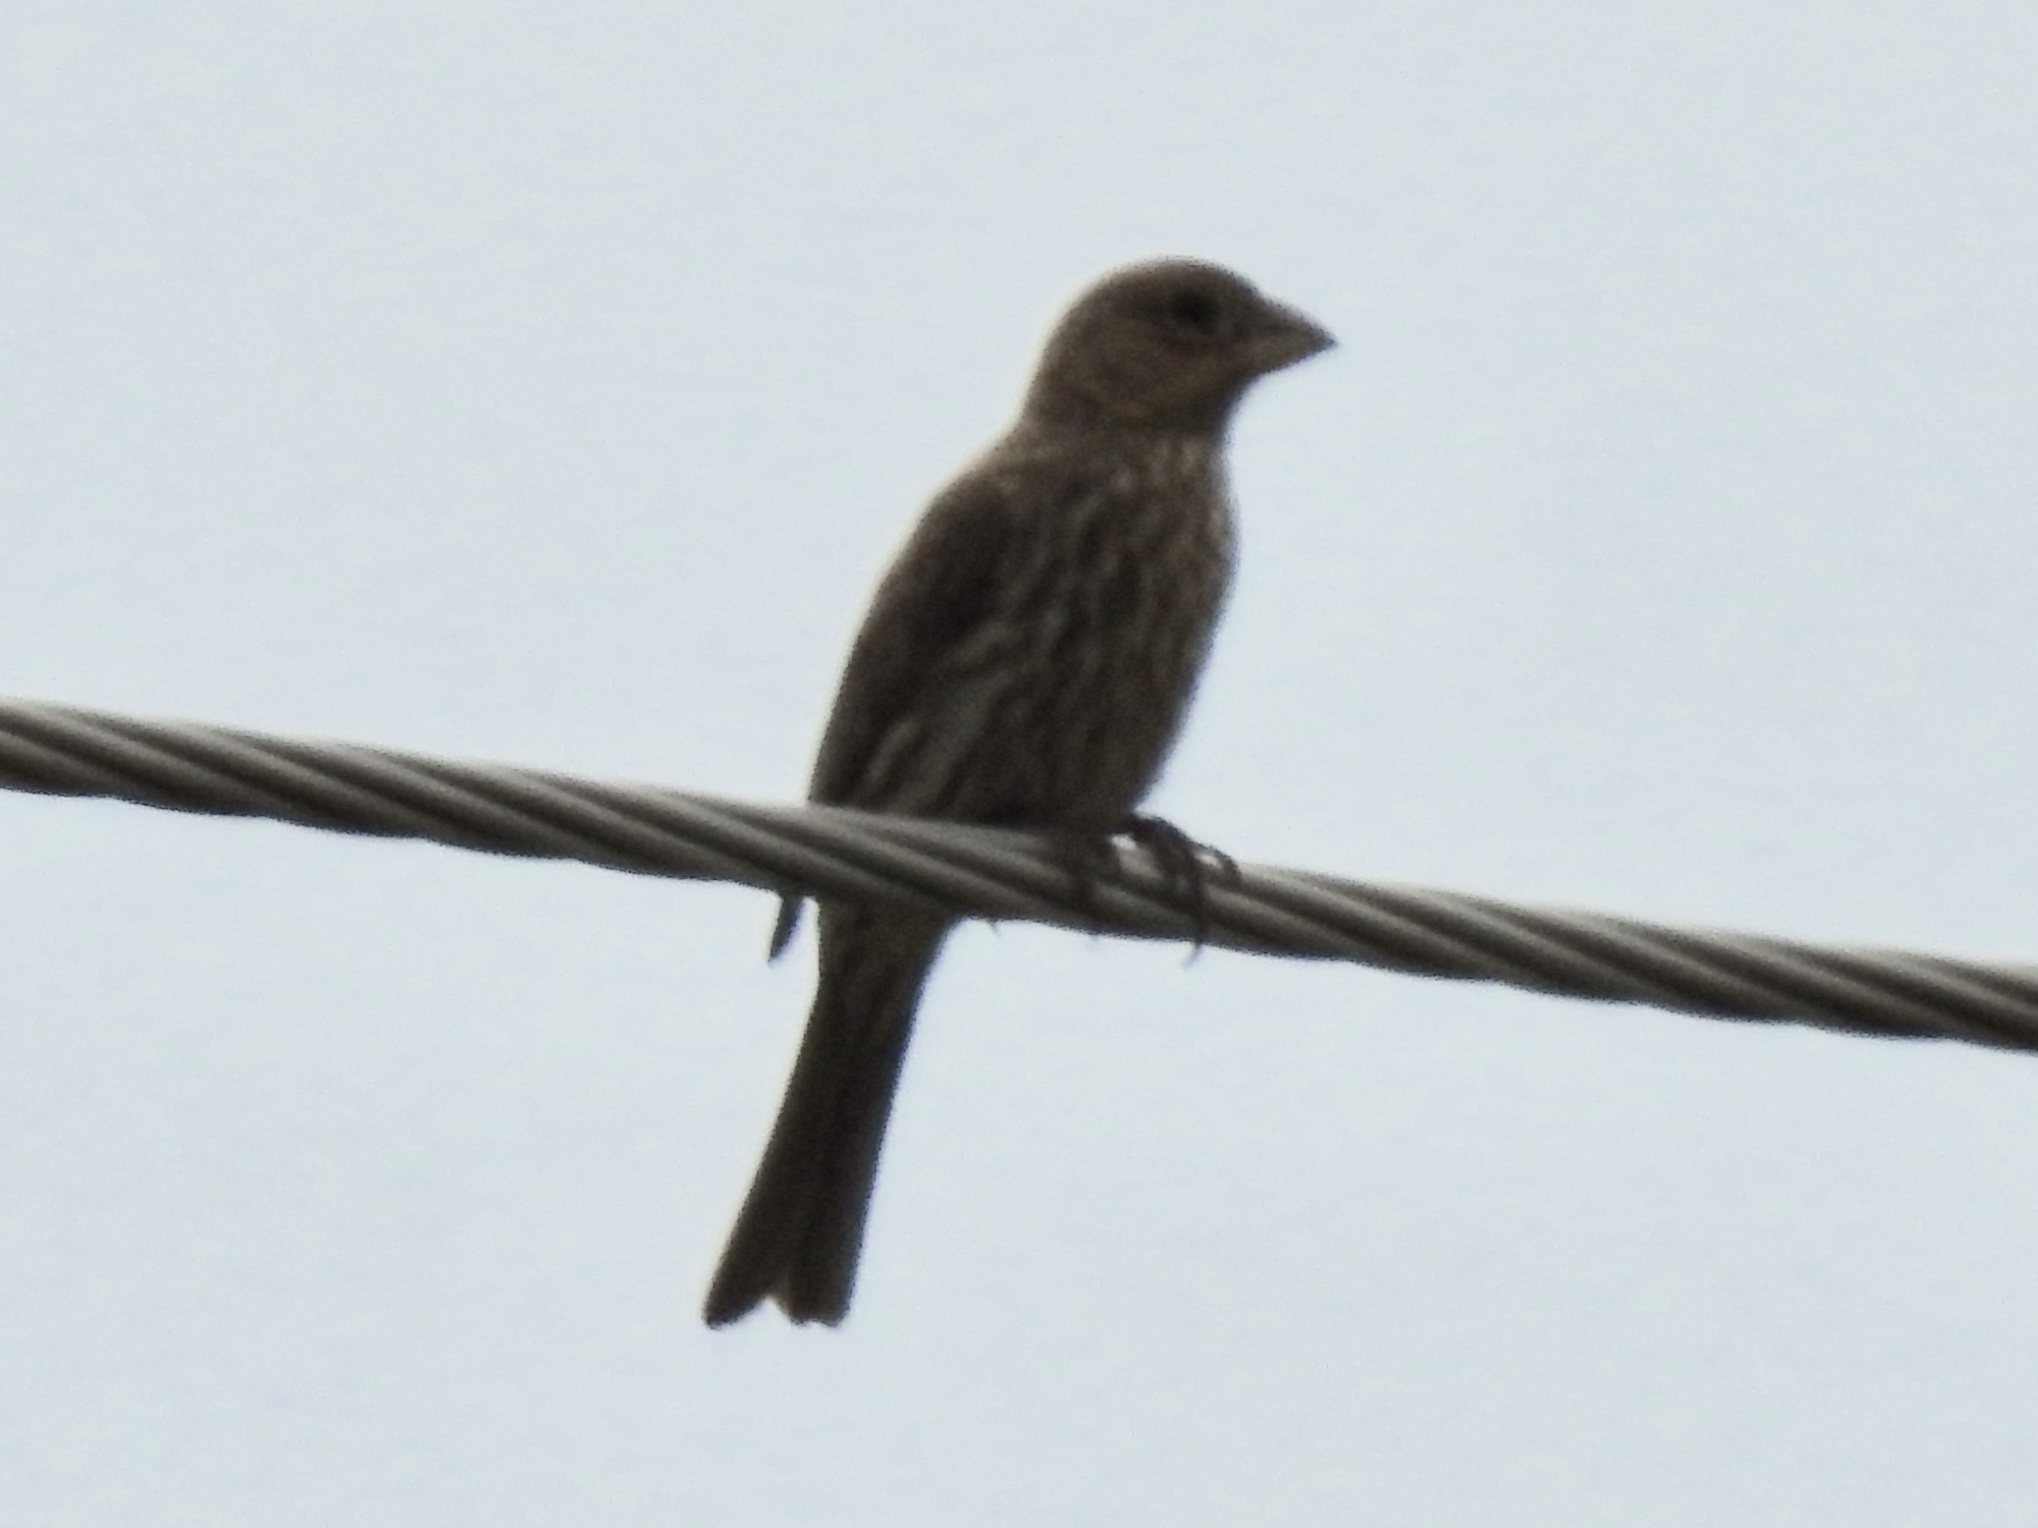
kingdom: Animalia
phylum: Chordata
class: Aves
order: Passeriformes
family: Fringillidae
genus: Haemorhous
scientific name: Haemorhous mexicanus
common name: House finch
